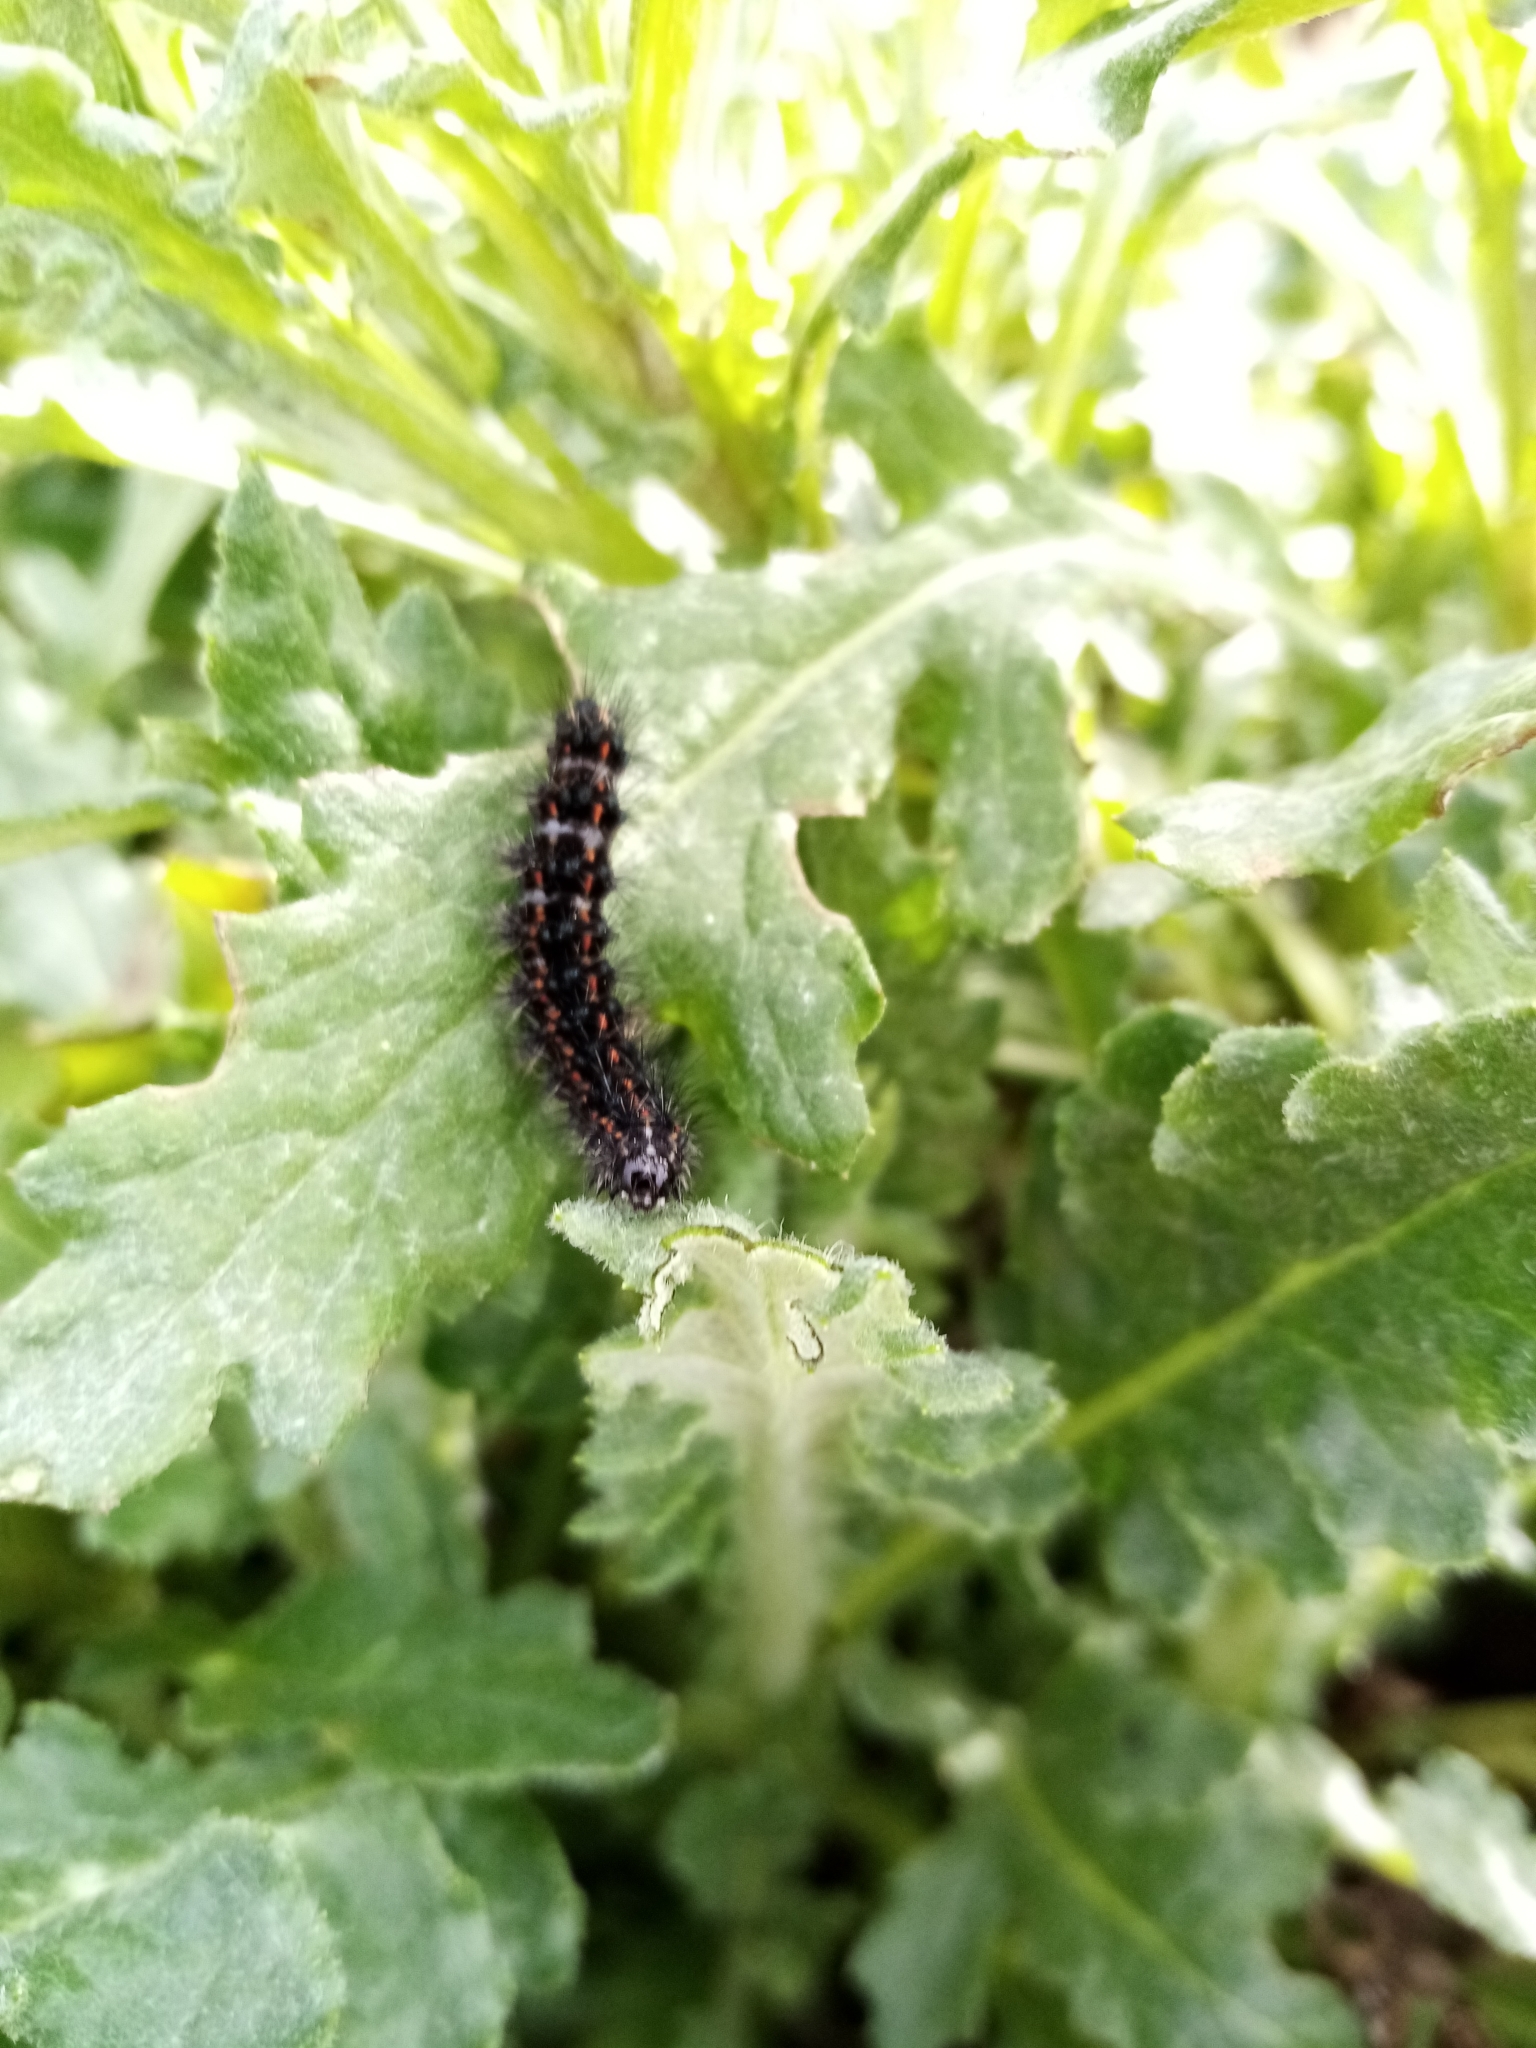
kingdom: Animalia
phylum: Arthropoda
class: Insecta
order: Lepidoptera
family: Erebidae
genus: Nyctemera
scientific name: Nyctemera annulatum
